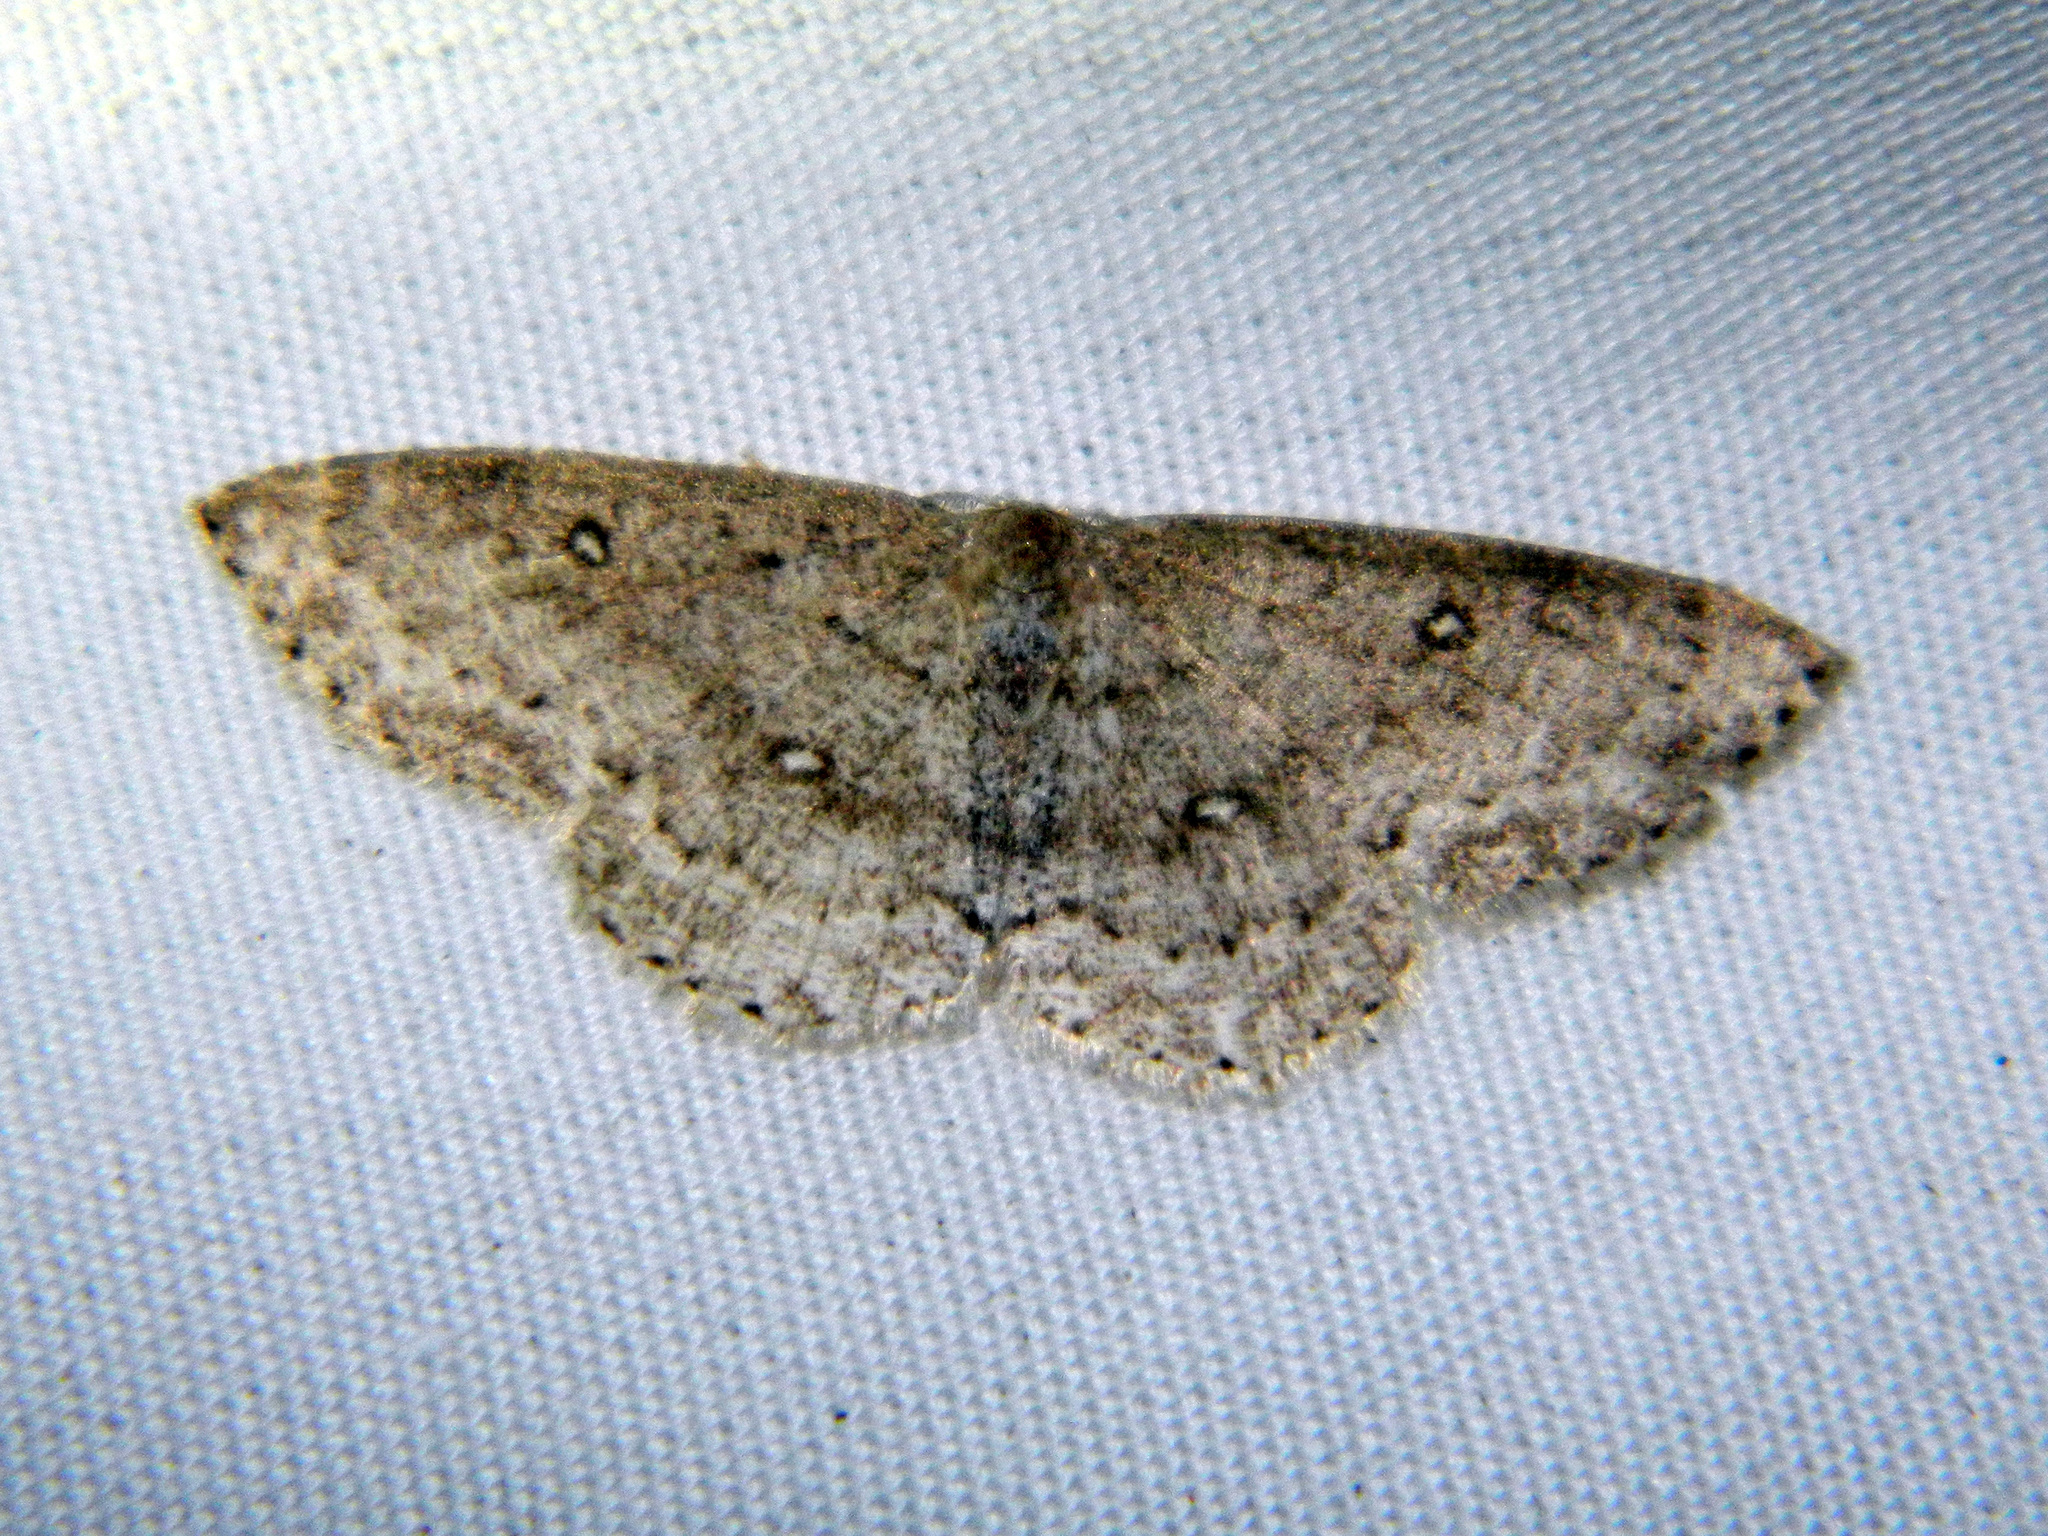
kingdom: Animalia
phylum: Arthropoda
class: Insecta
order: Lepidoptera
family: Geometridae
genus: Cyclophora
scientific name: Cyclophora pendulinaria
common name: Sweet fern geometer
